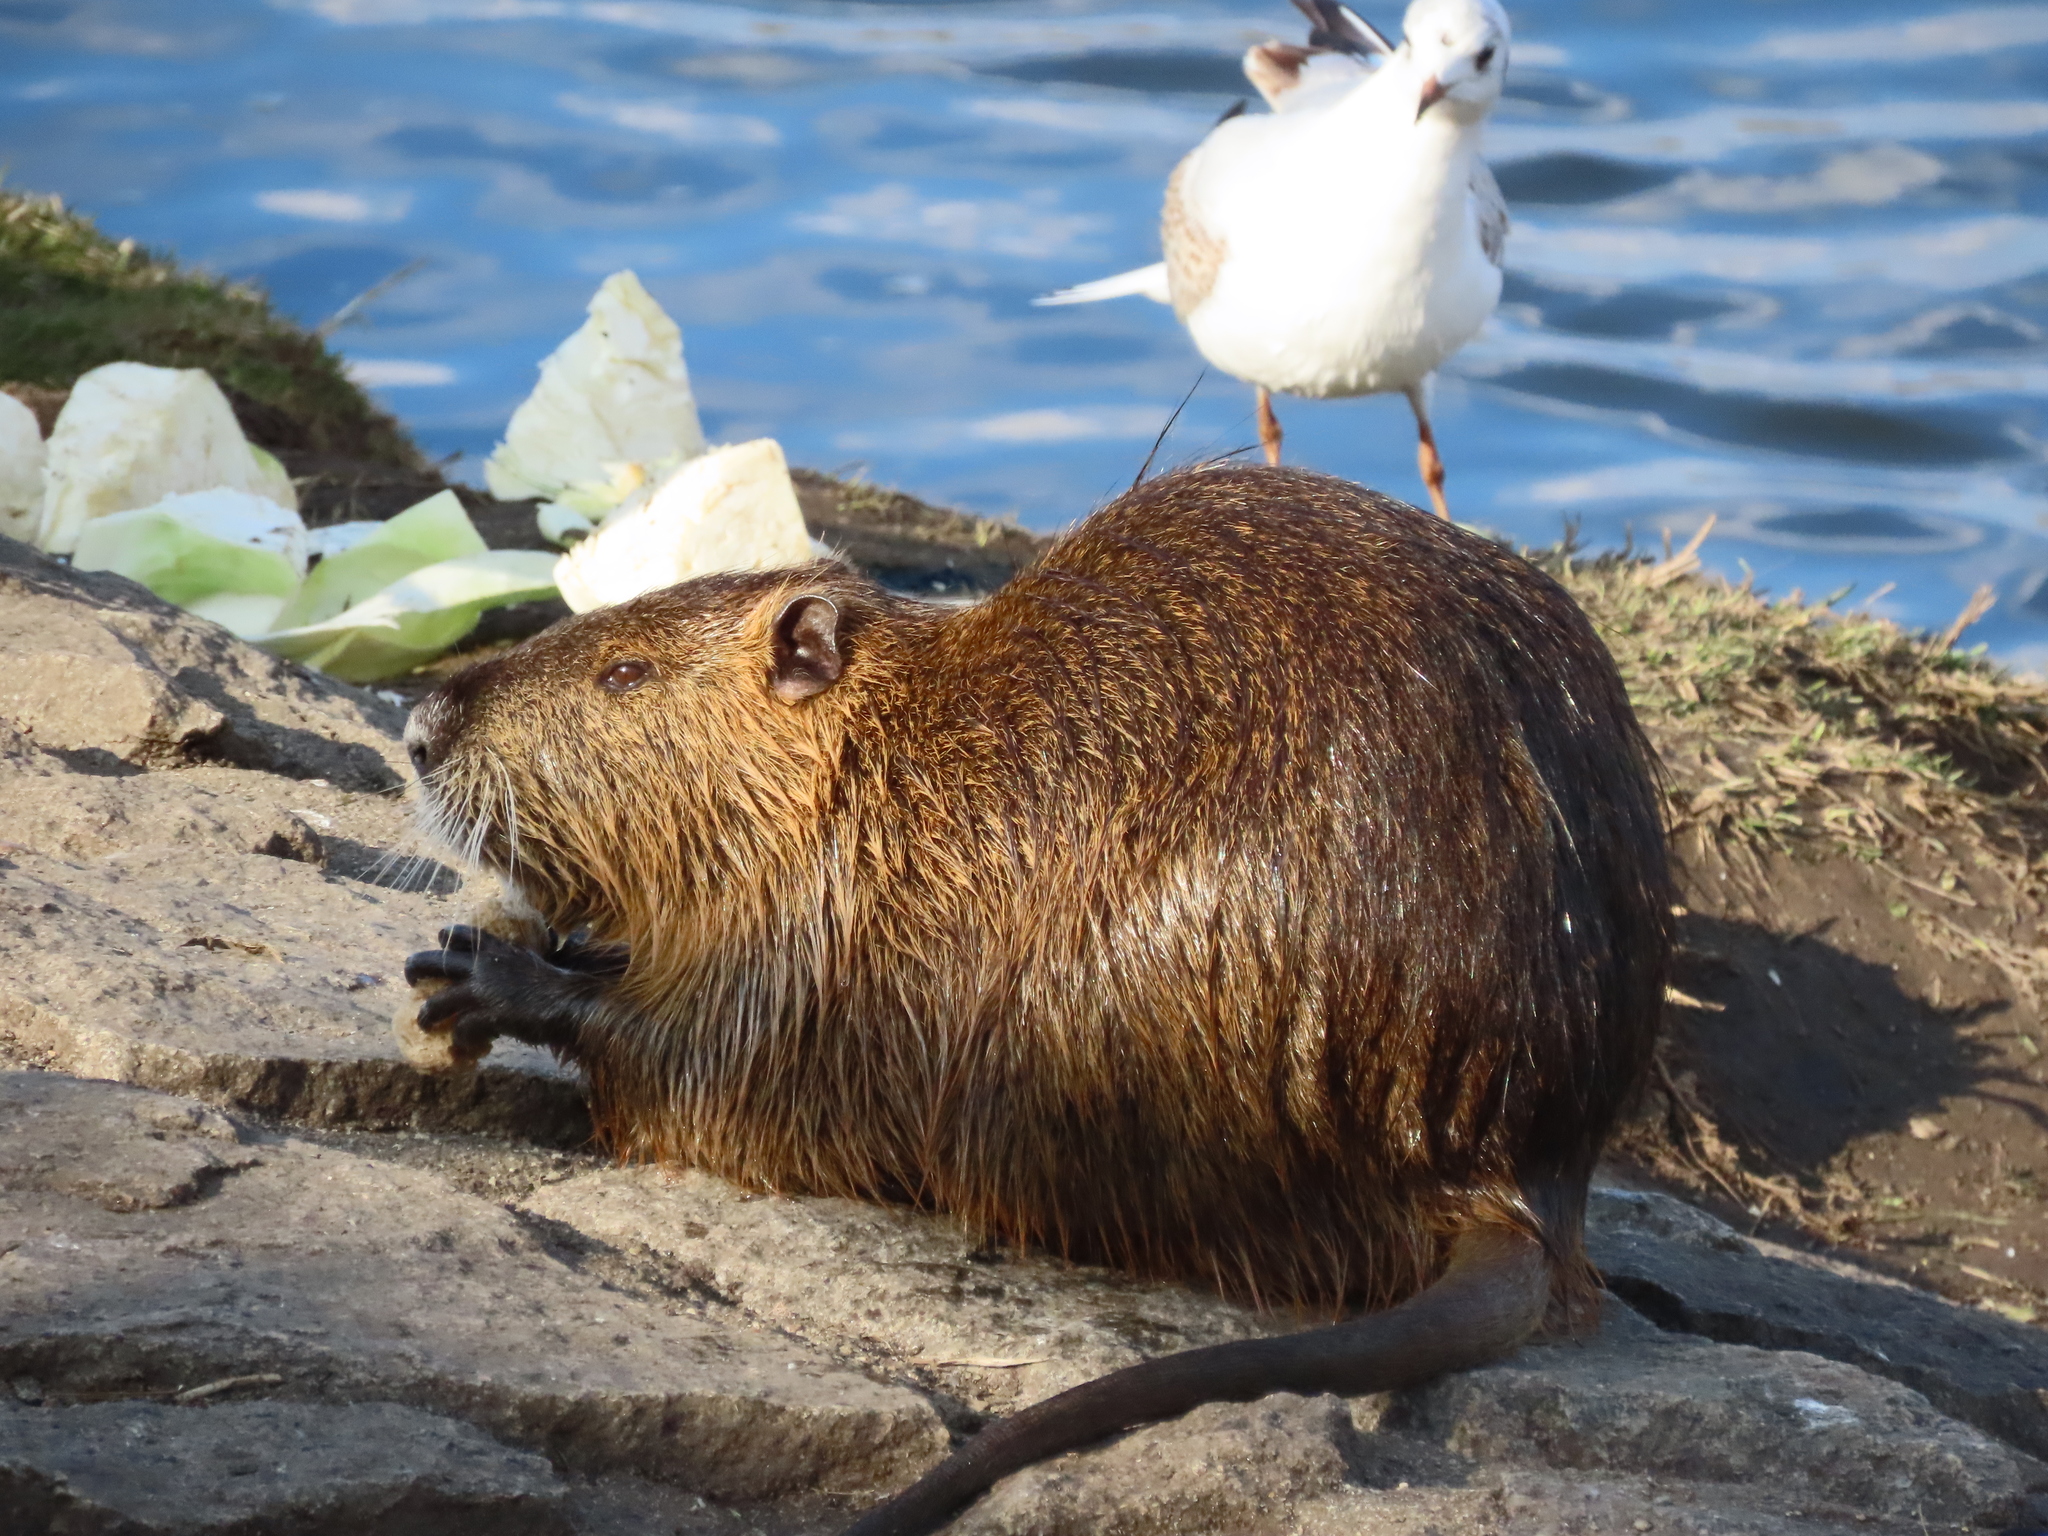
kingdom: Animalia
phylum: Chordata
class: Mammalia
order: Rodentia
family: Myocastoridae
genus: Myocastor
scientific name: Myocastor coypus
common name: Coypu
